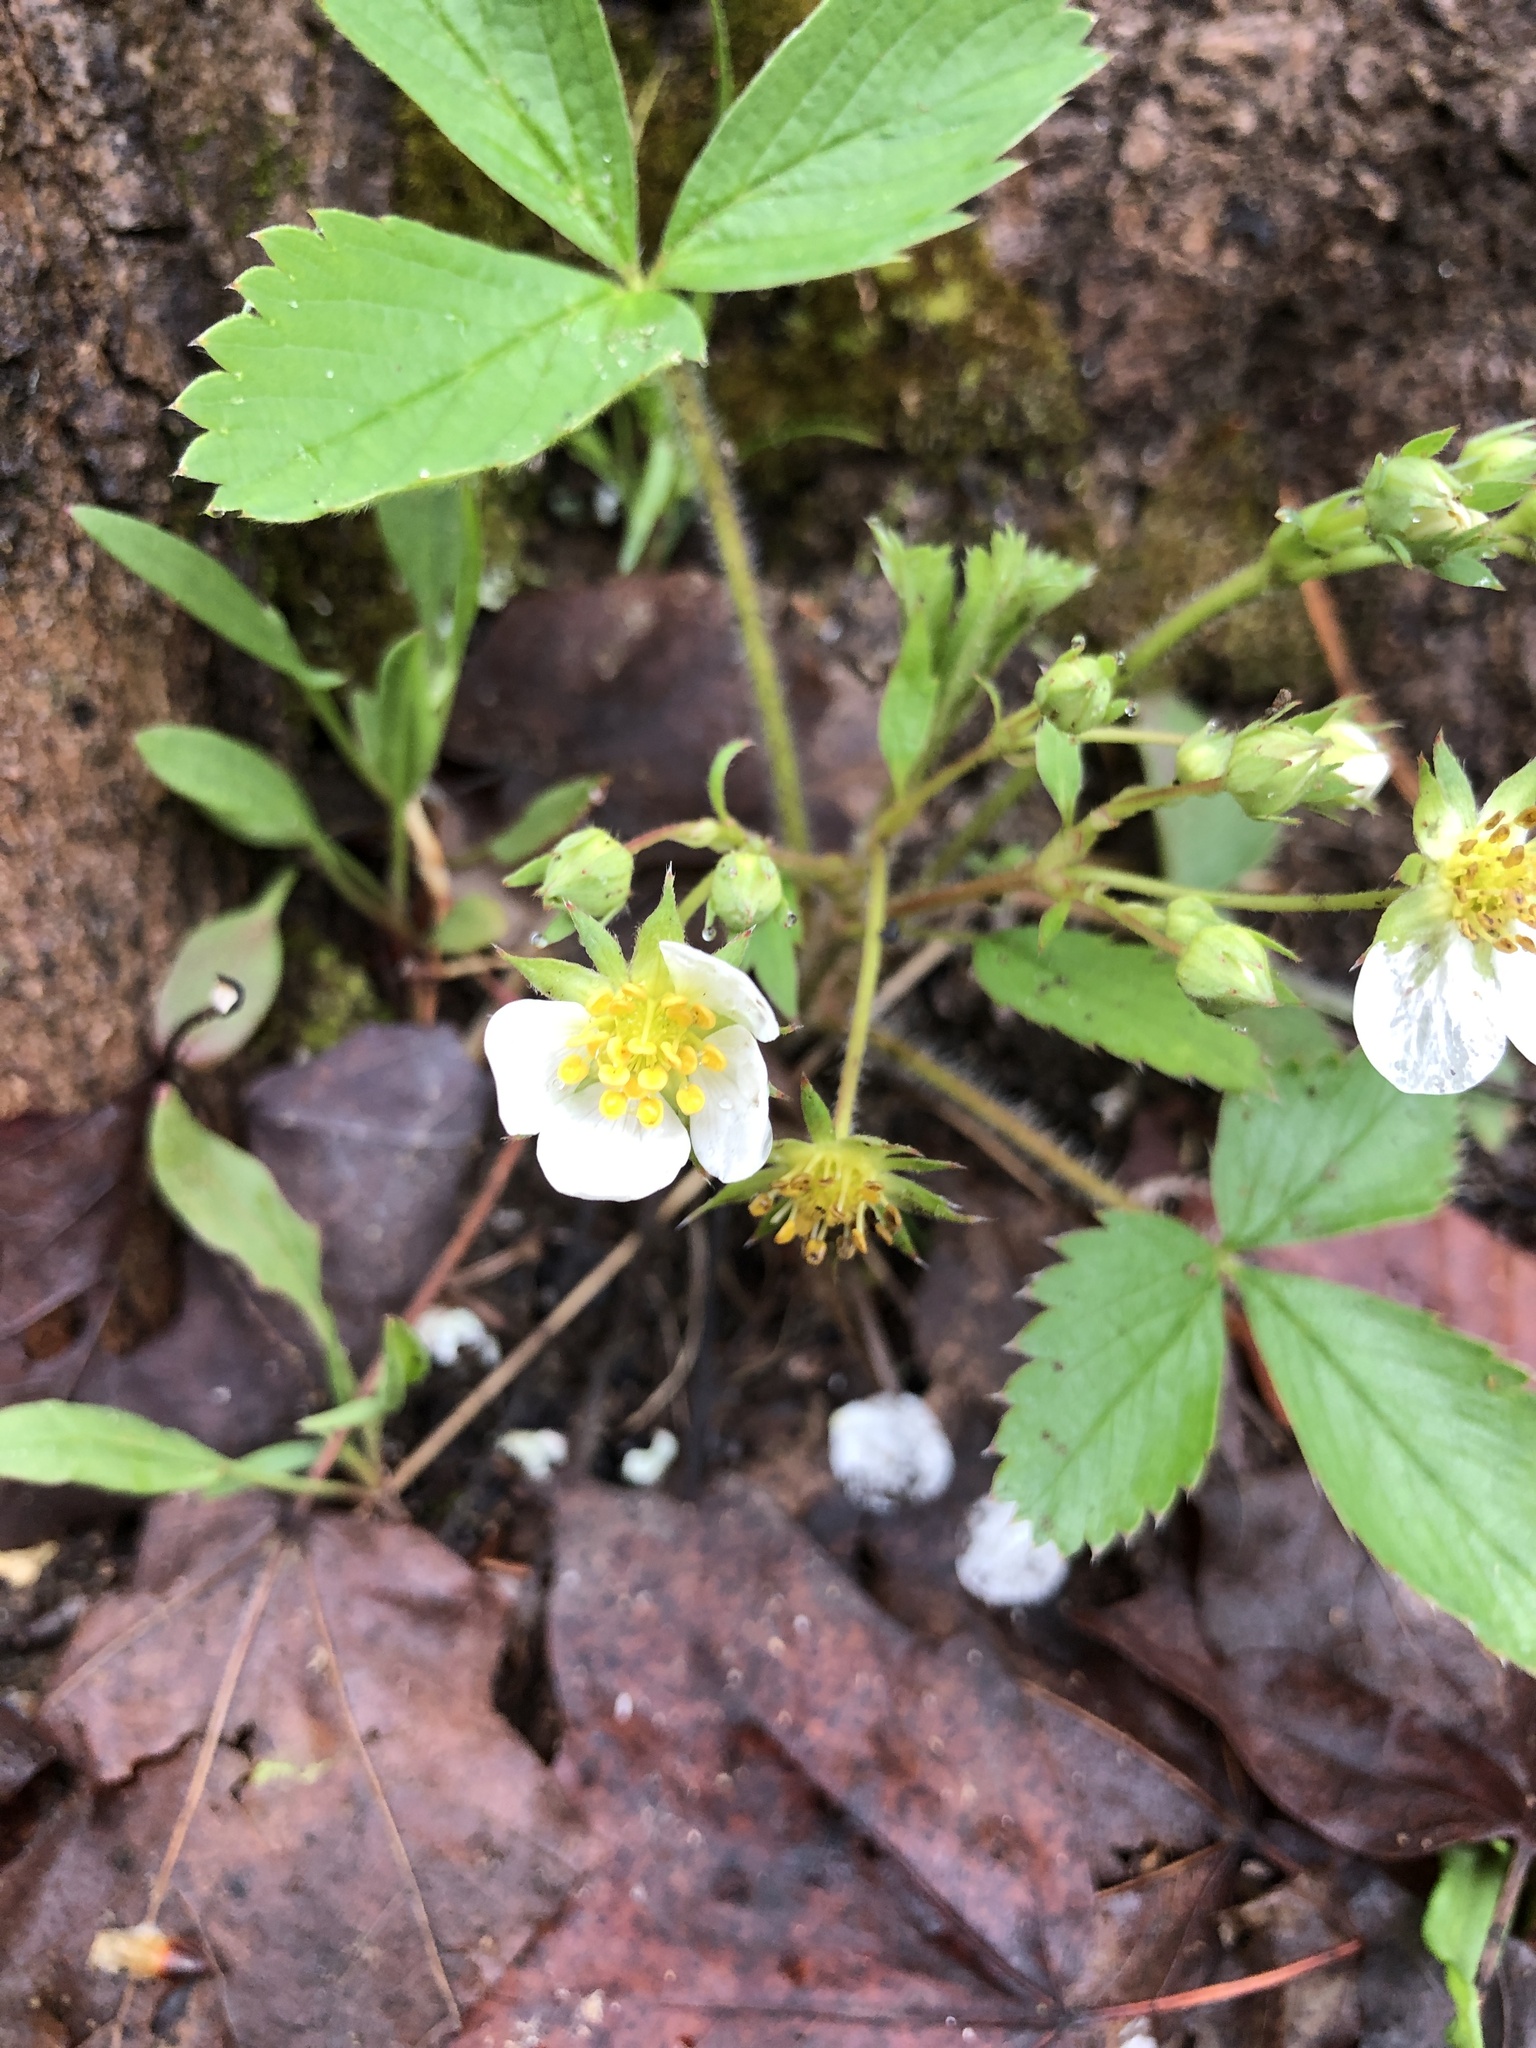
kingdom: Plantae
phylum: Tracheophyta
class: Magnoliopsida
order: Rosales
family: Rosaceae
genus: Fragaria
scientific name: Fragaria virginiana
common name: Thickleaved wild strawberry
